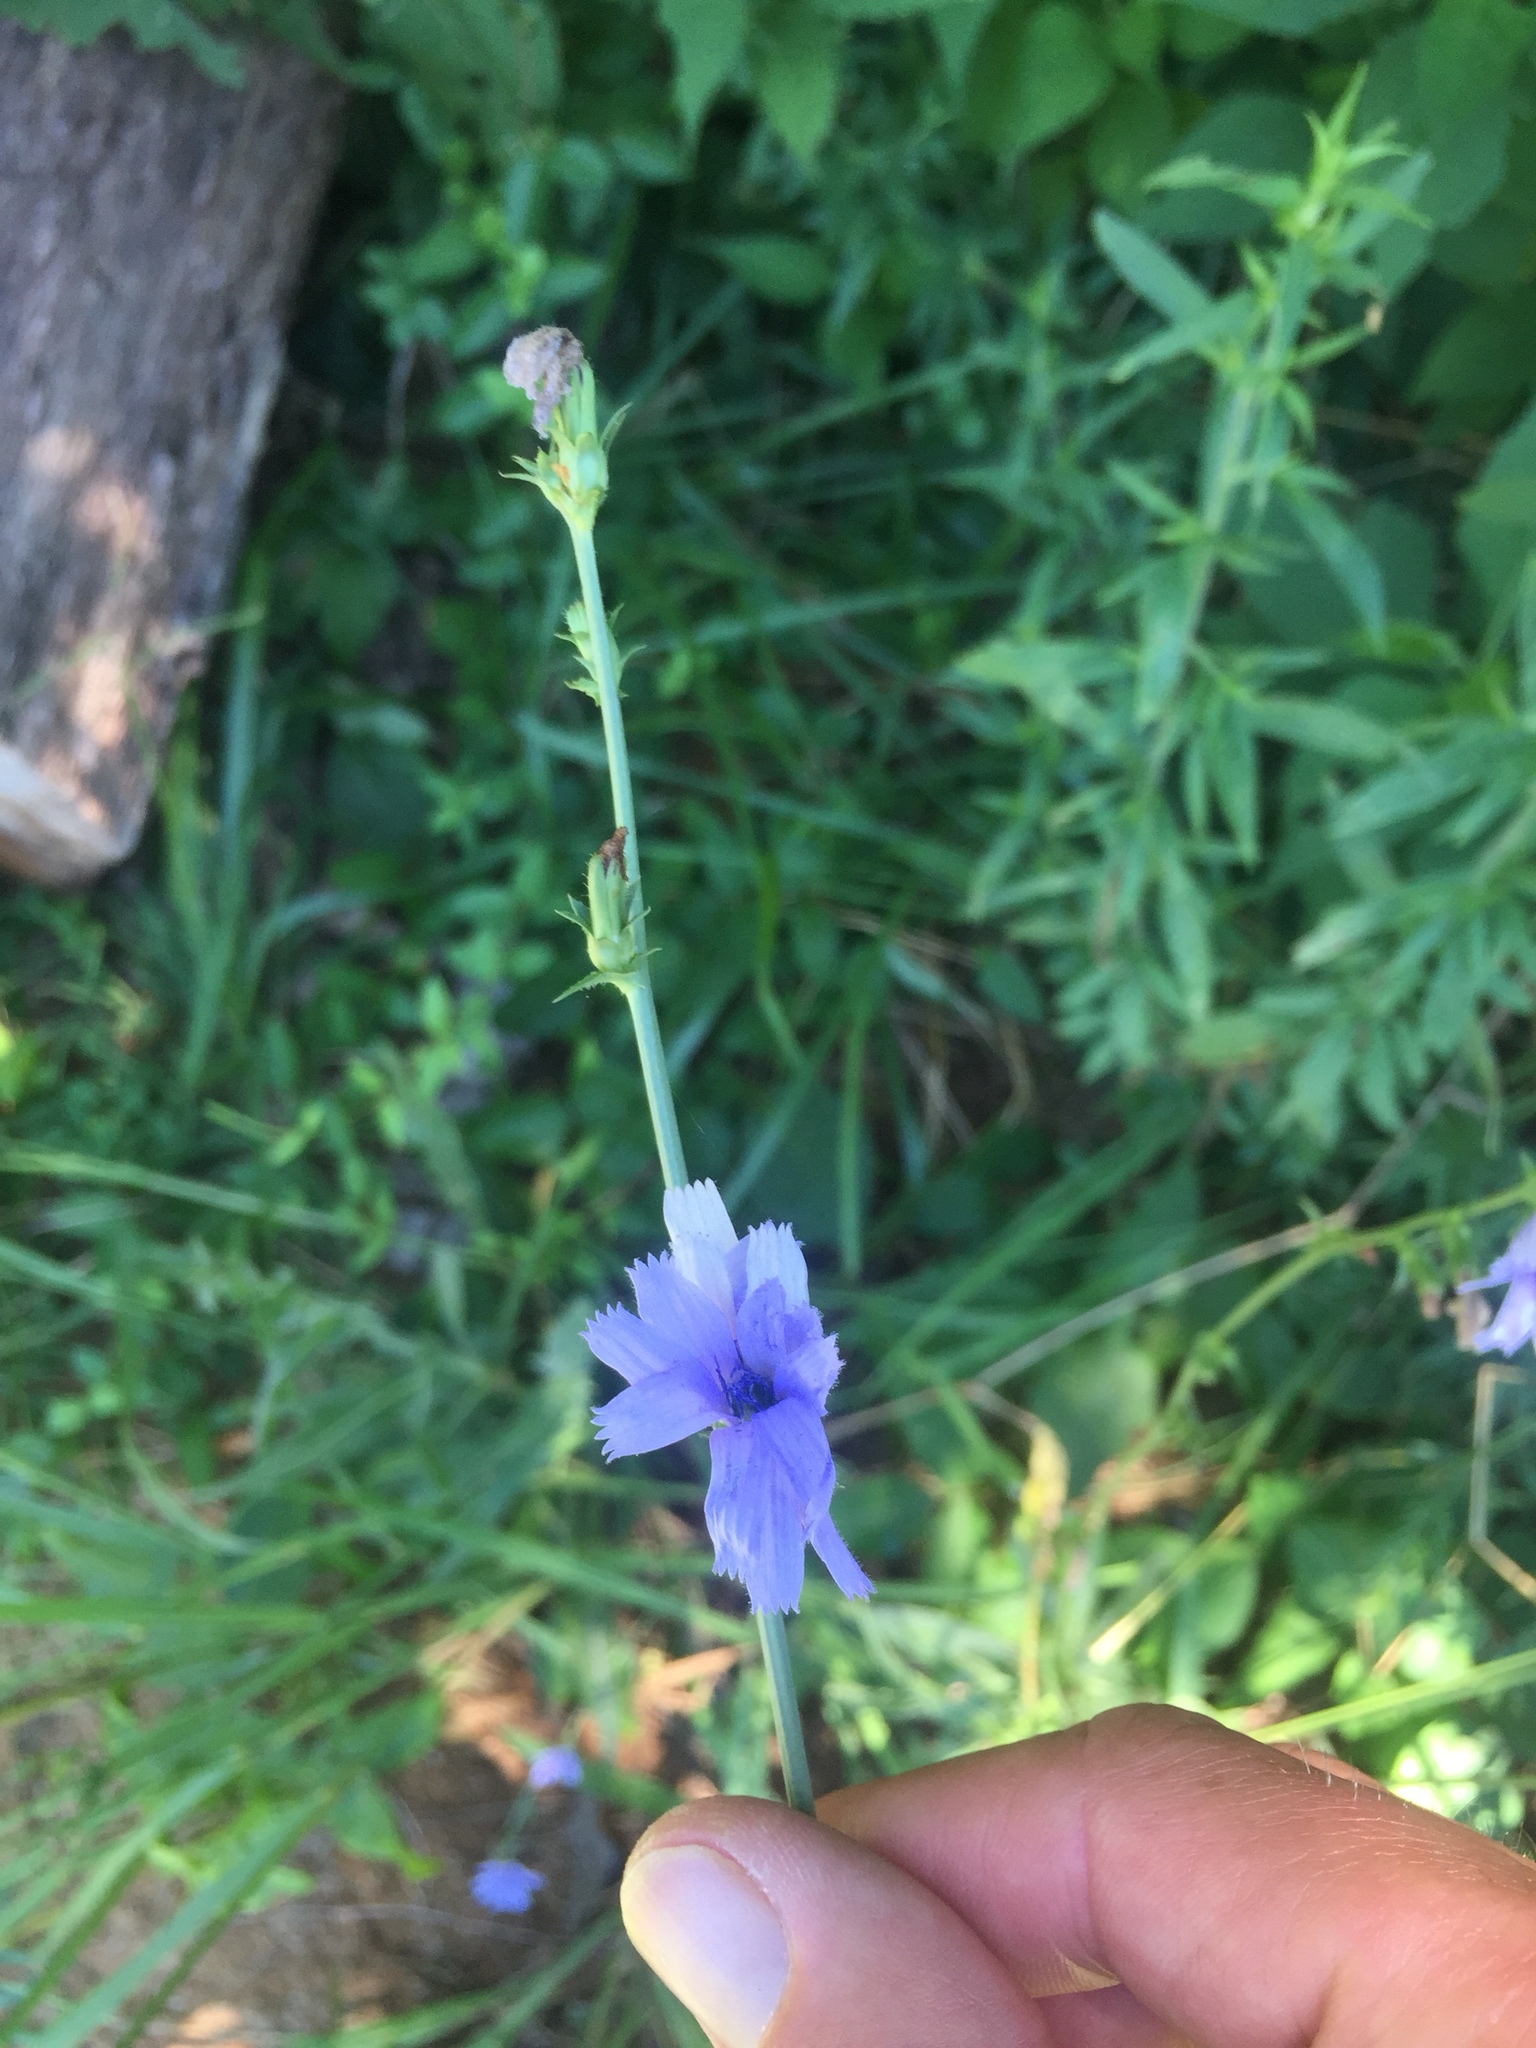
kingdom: Plantae
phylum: Tracheophyta
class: Magnoliopsida
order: Asterales
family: Asteraceae
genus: Cichorium
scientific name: Cichorium intybus
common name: Chicory
